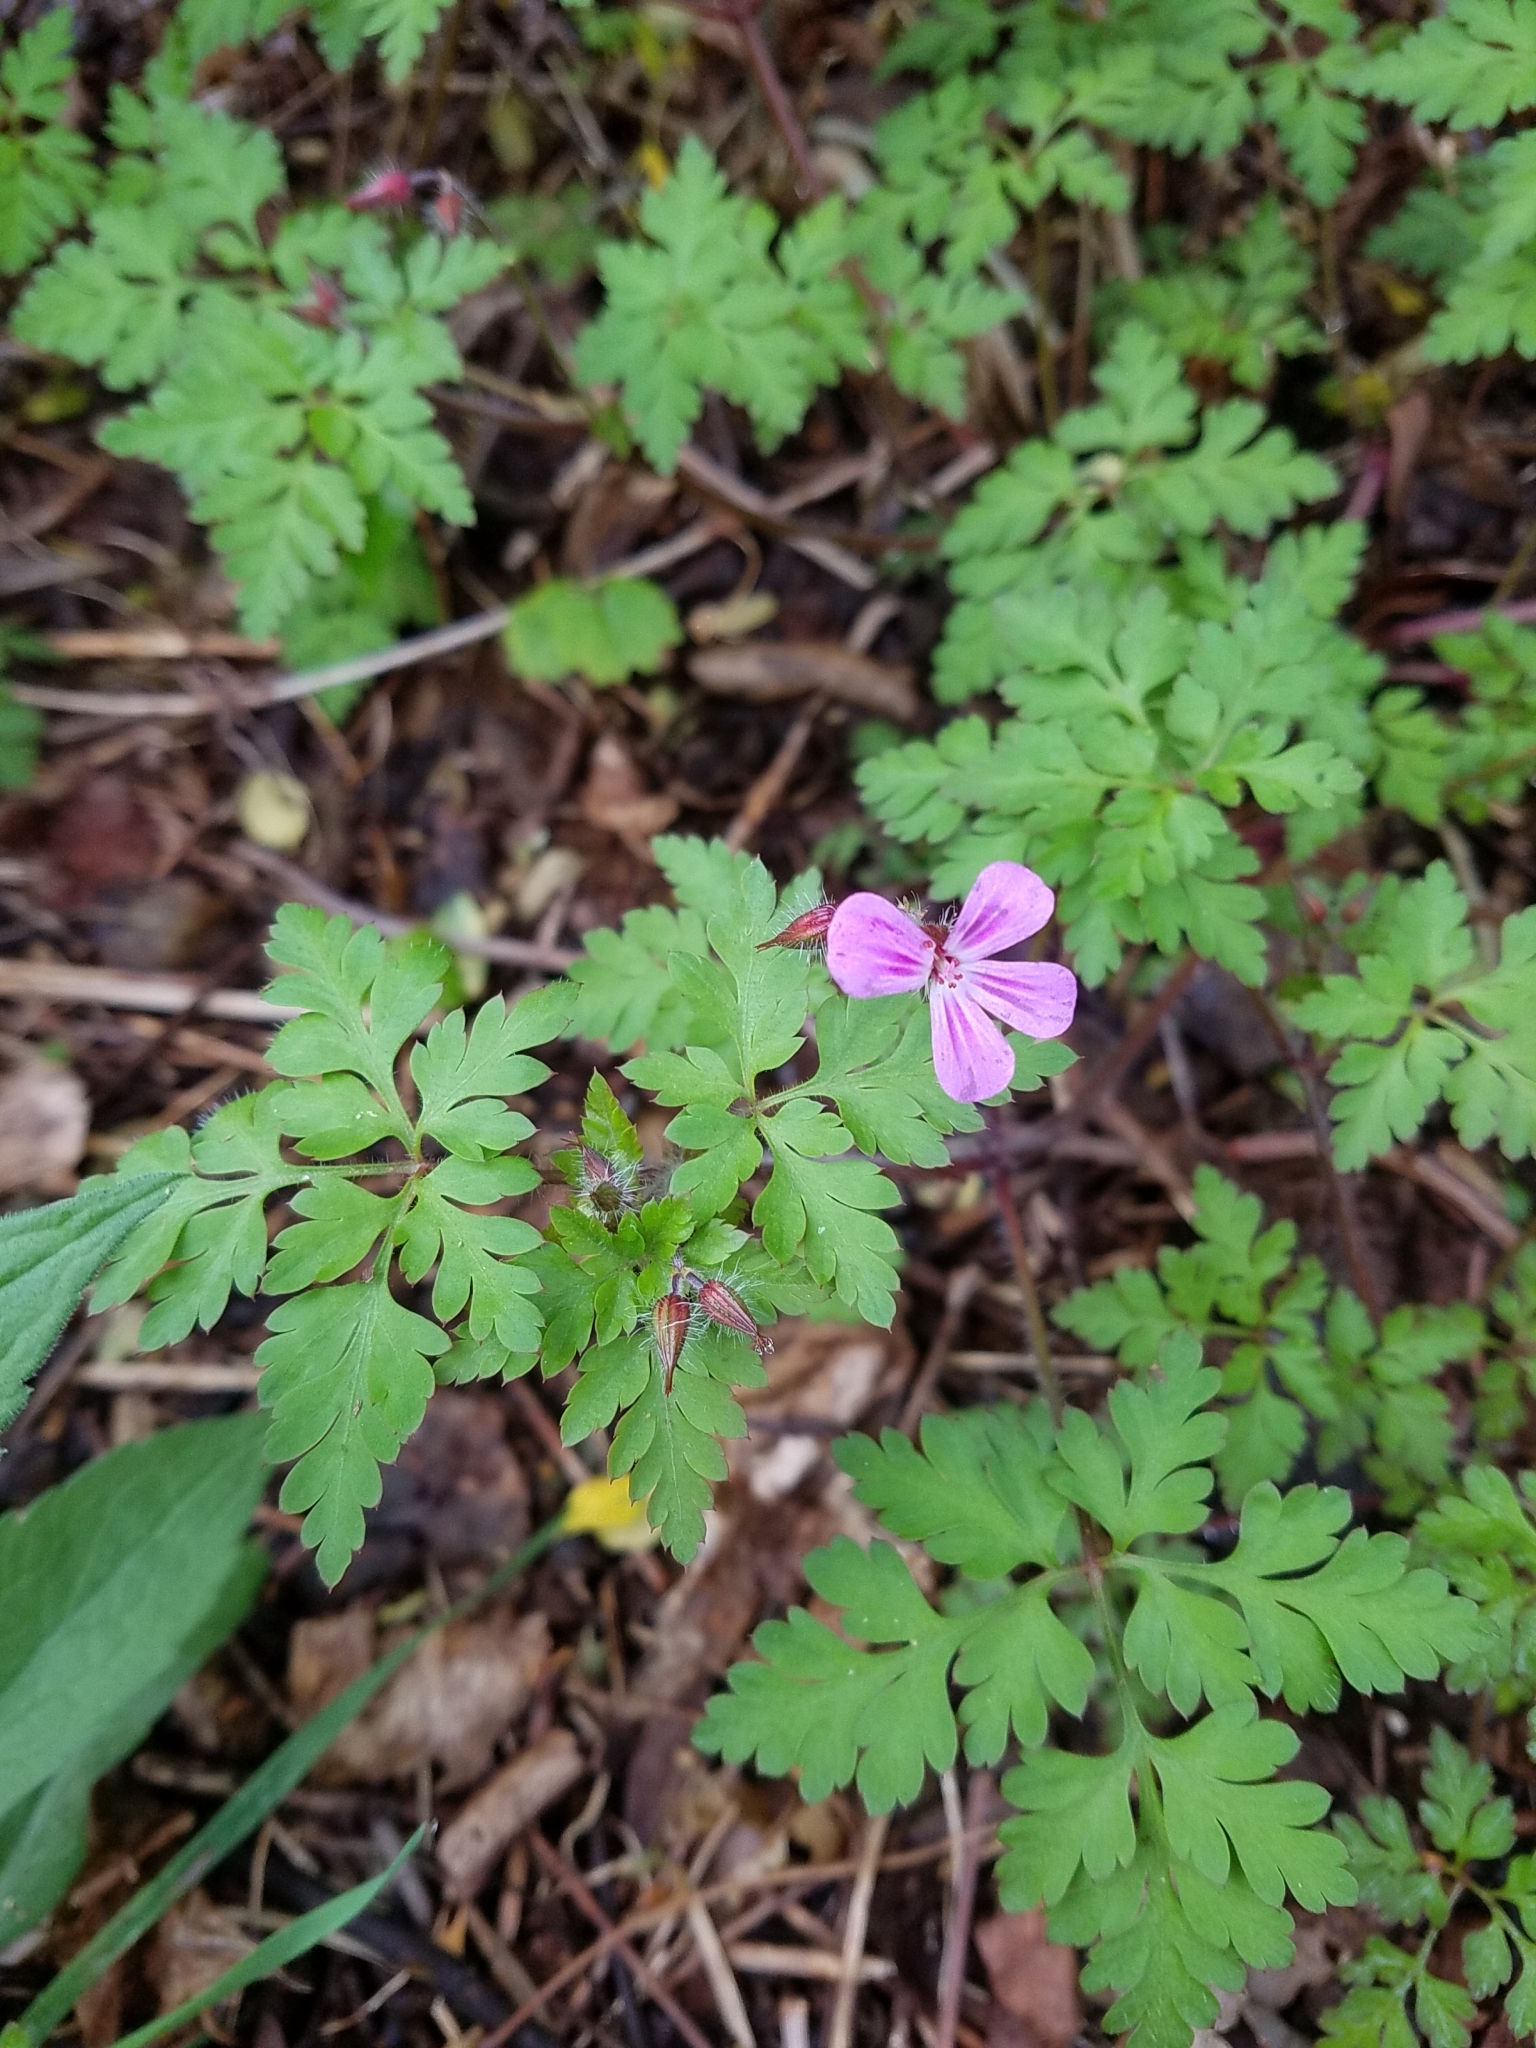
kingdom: Plantae
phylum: Tracheophyta
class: Magnoliopsida
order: Geraniales
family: Geraniaceae
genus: Geranium
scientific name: Geranium robertianum
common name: Herb-robert
